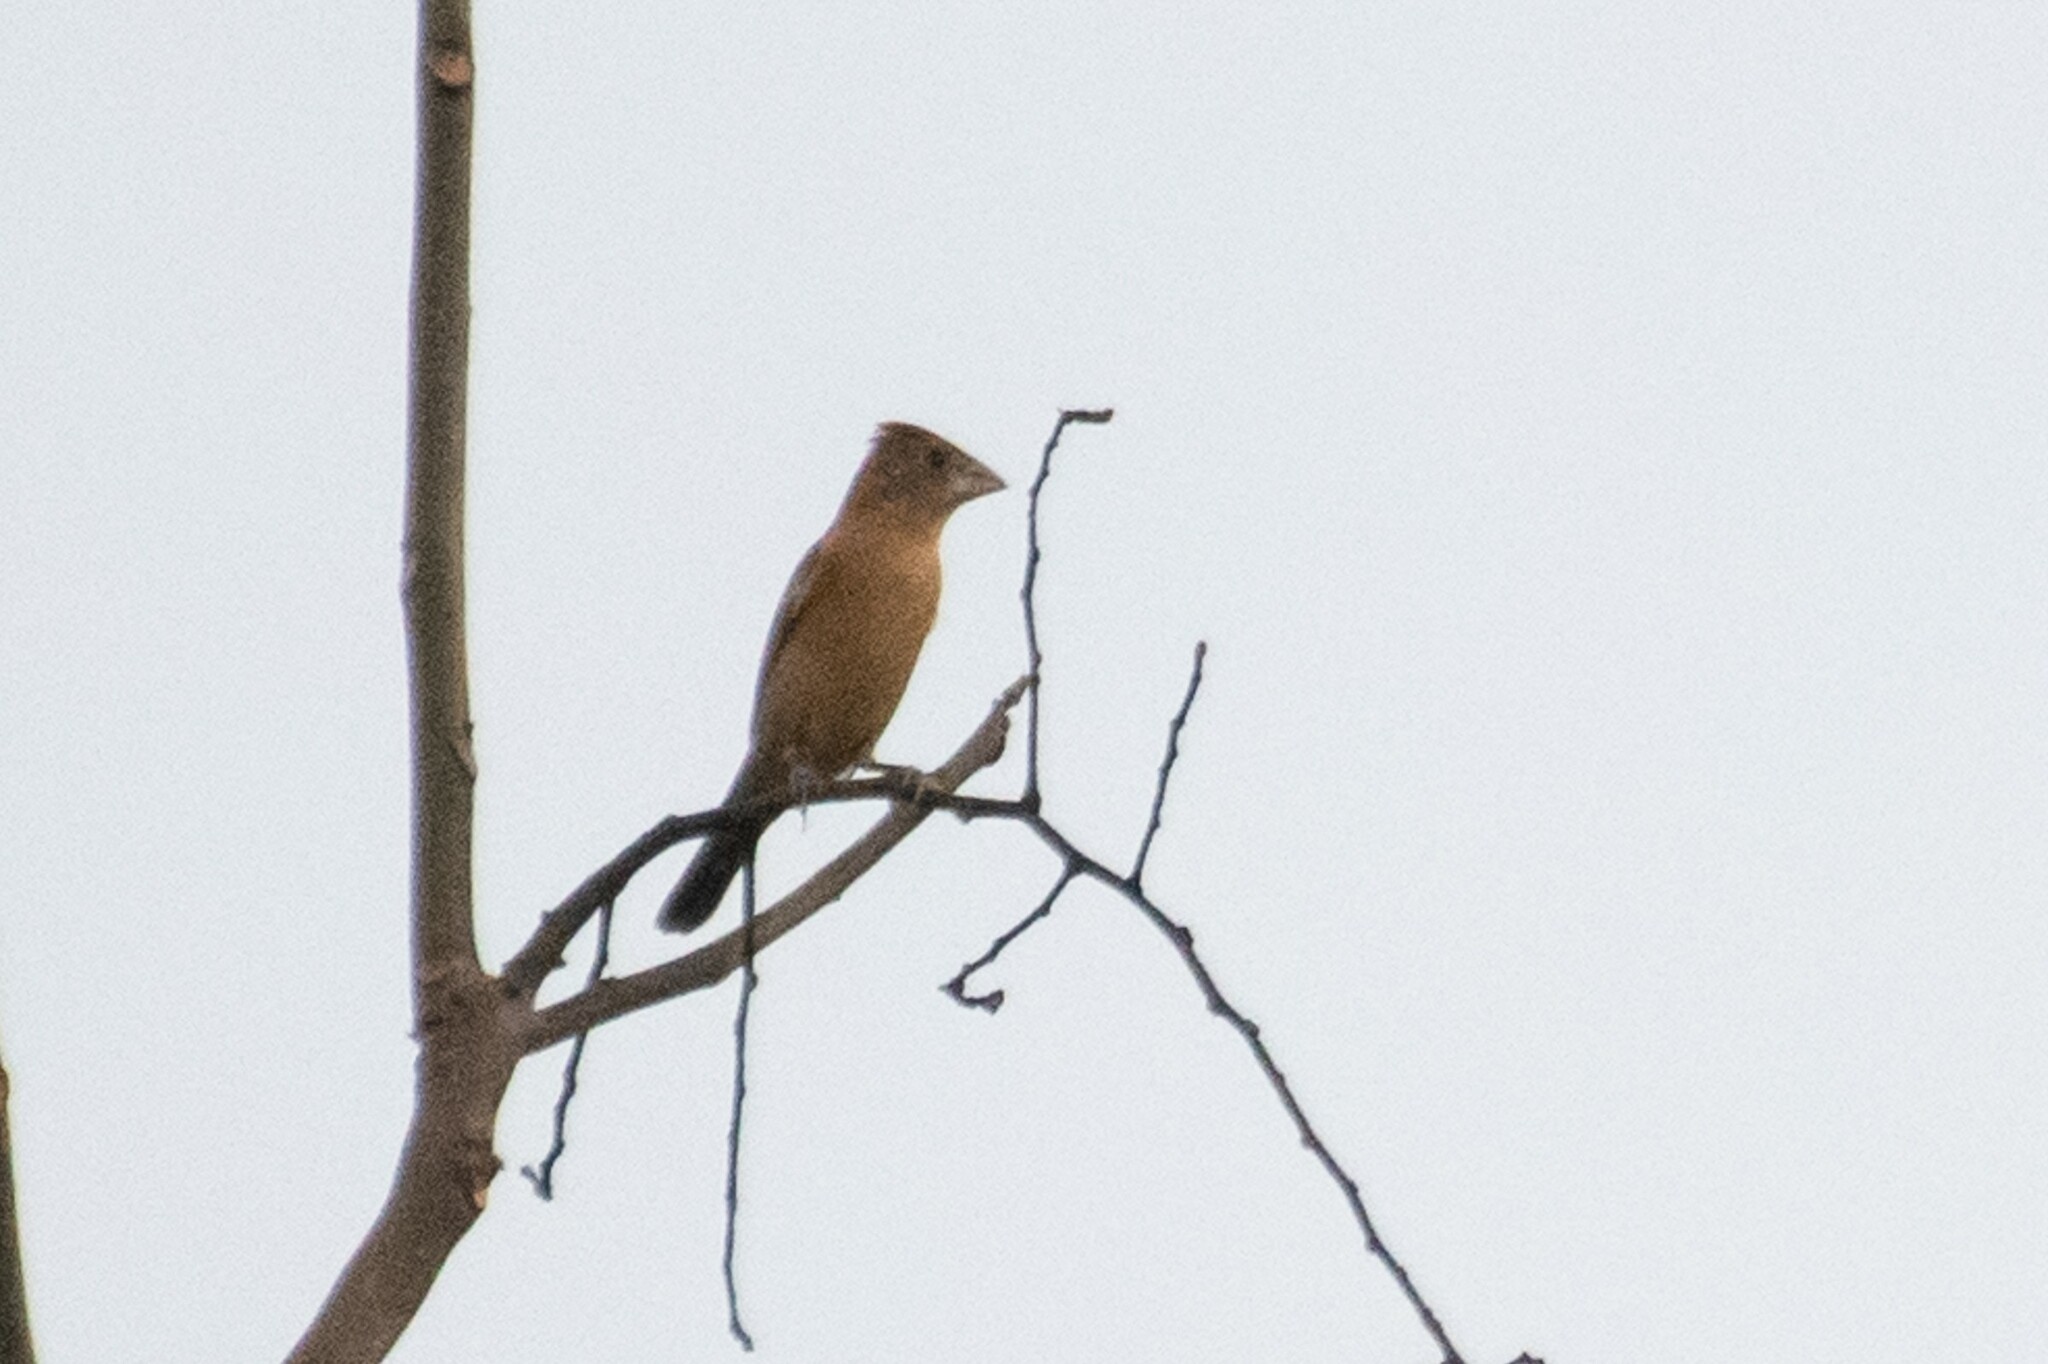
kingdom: Animalia
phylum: Chordata
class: Aves
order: Passeriformes
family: Cardinalidae
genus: Passerina
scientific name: Passerina caerulea
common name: Blue grosbeak
